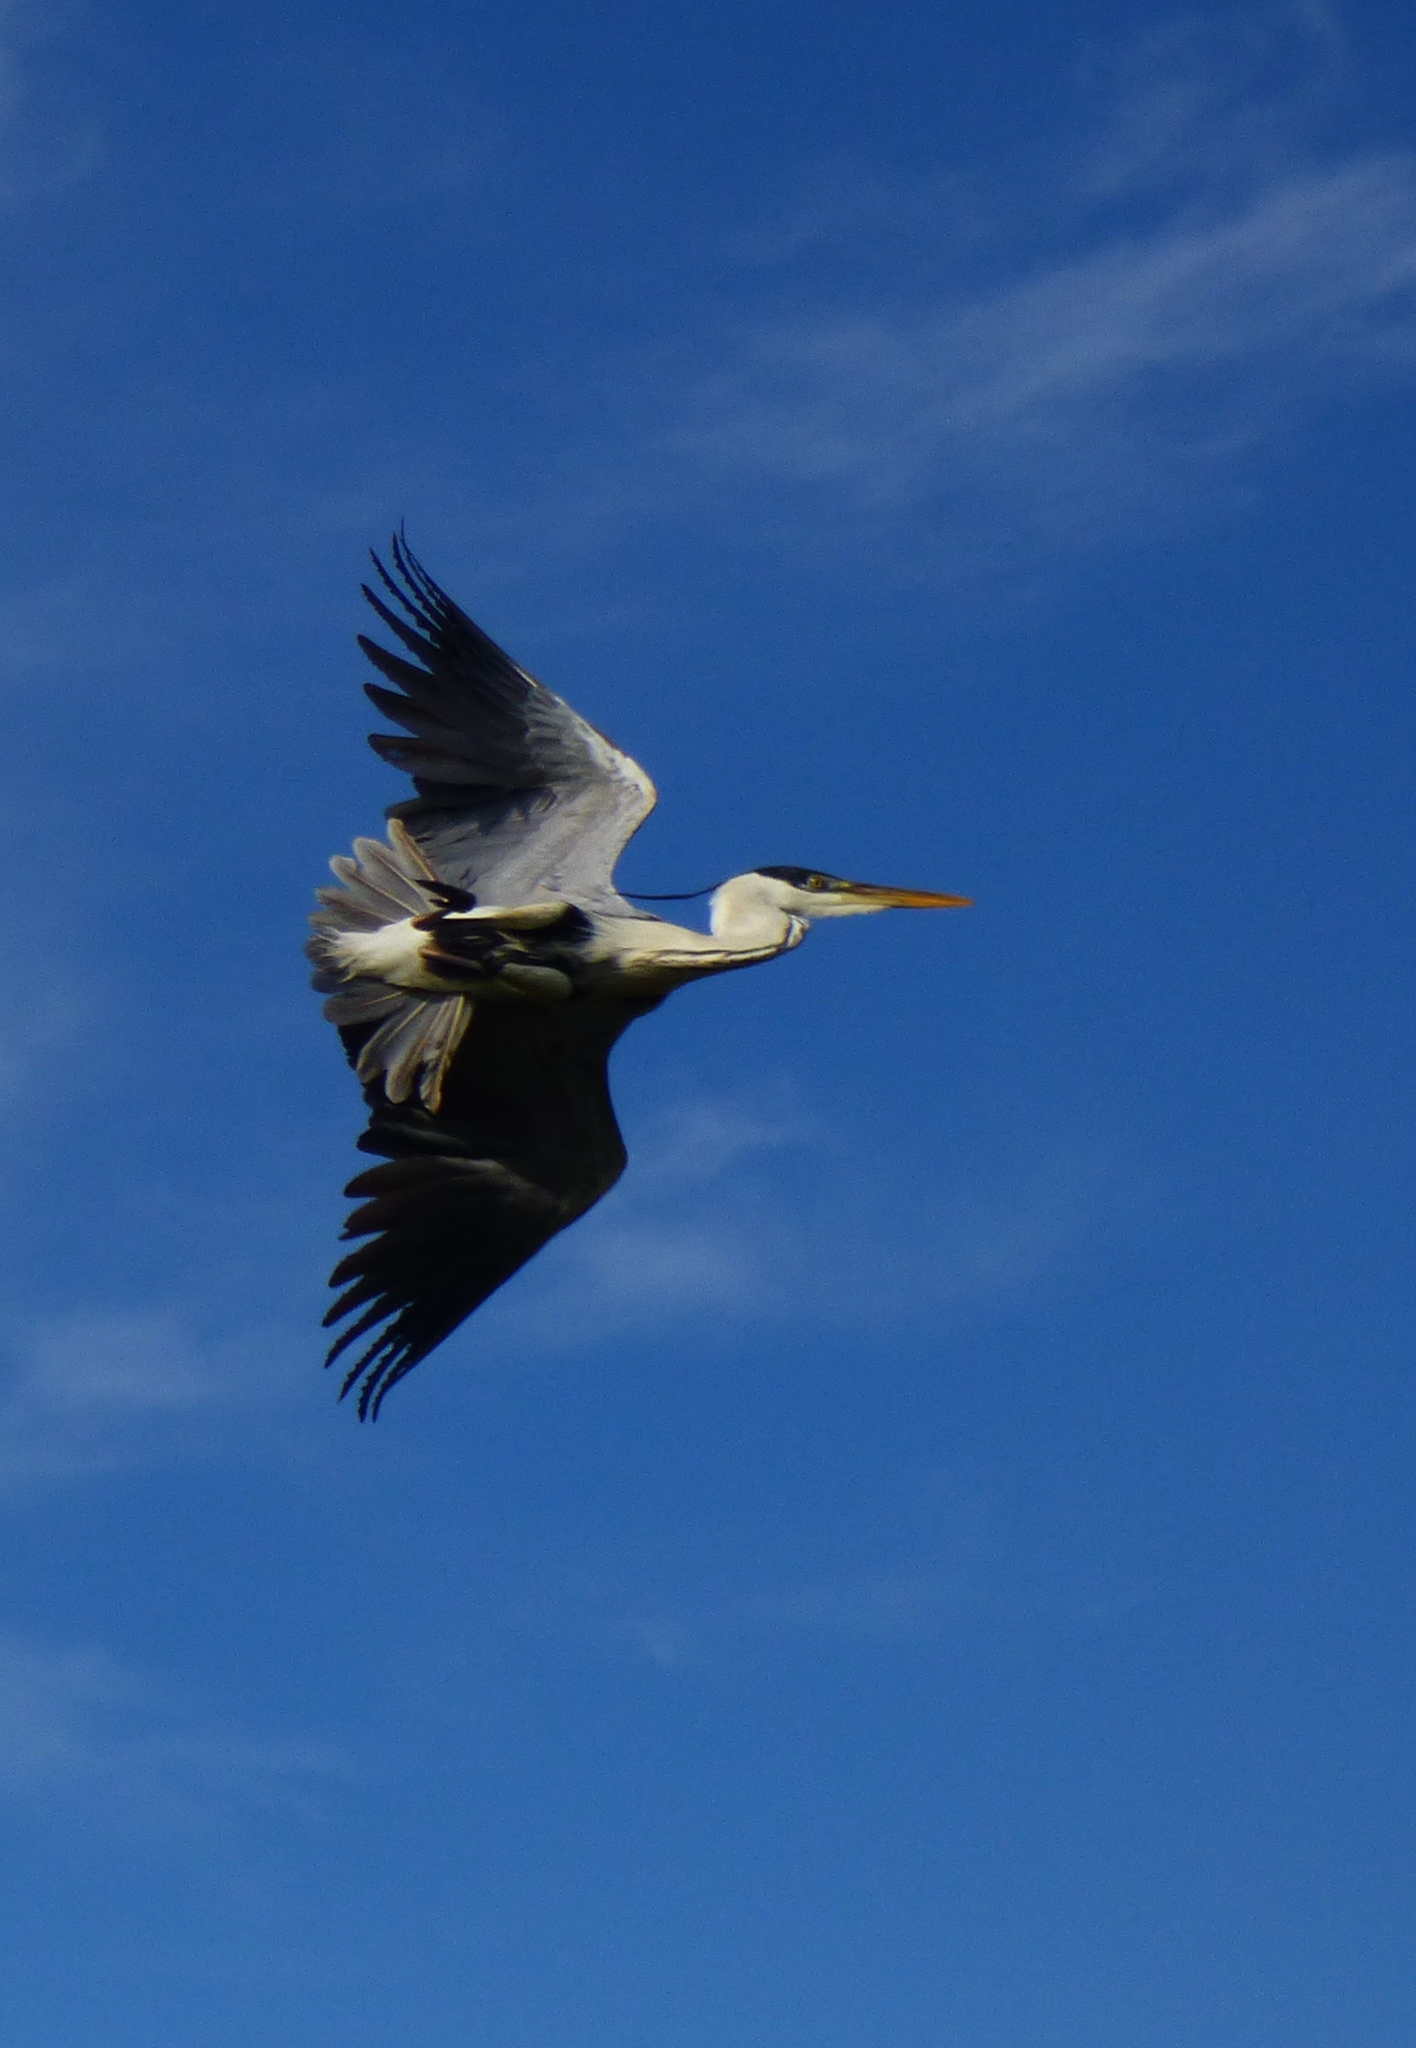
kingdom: Animalia
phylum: Chordata
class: Aves
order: Pelecaniformes
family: Ardeidae
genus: Ardea
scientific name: Ardea cocoi
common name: Cocoi heron
